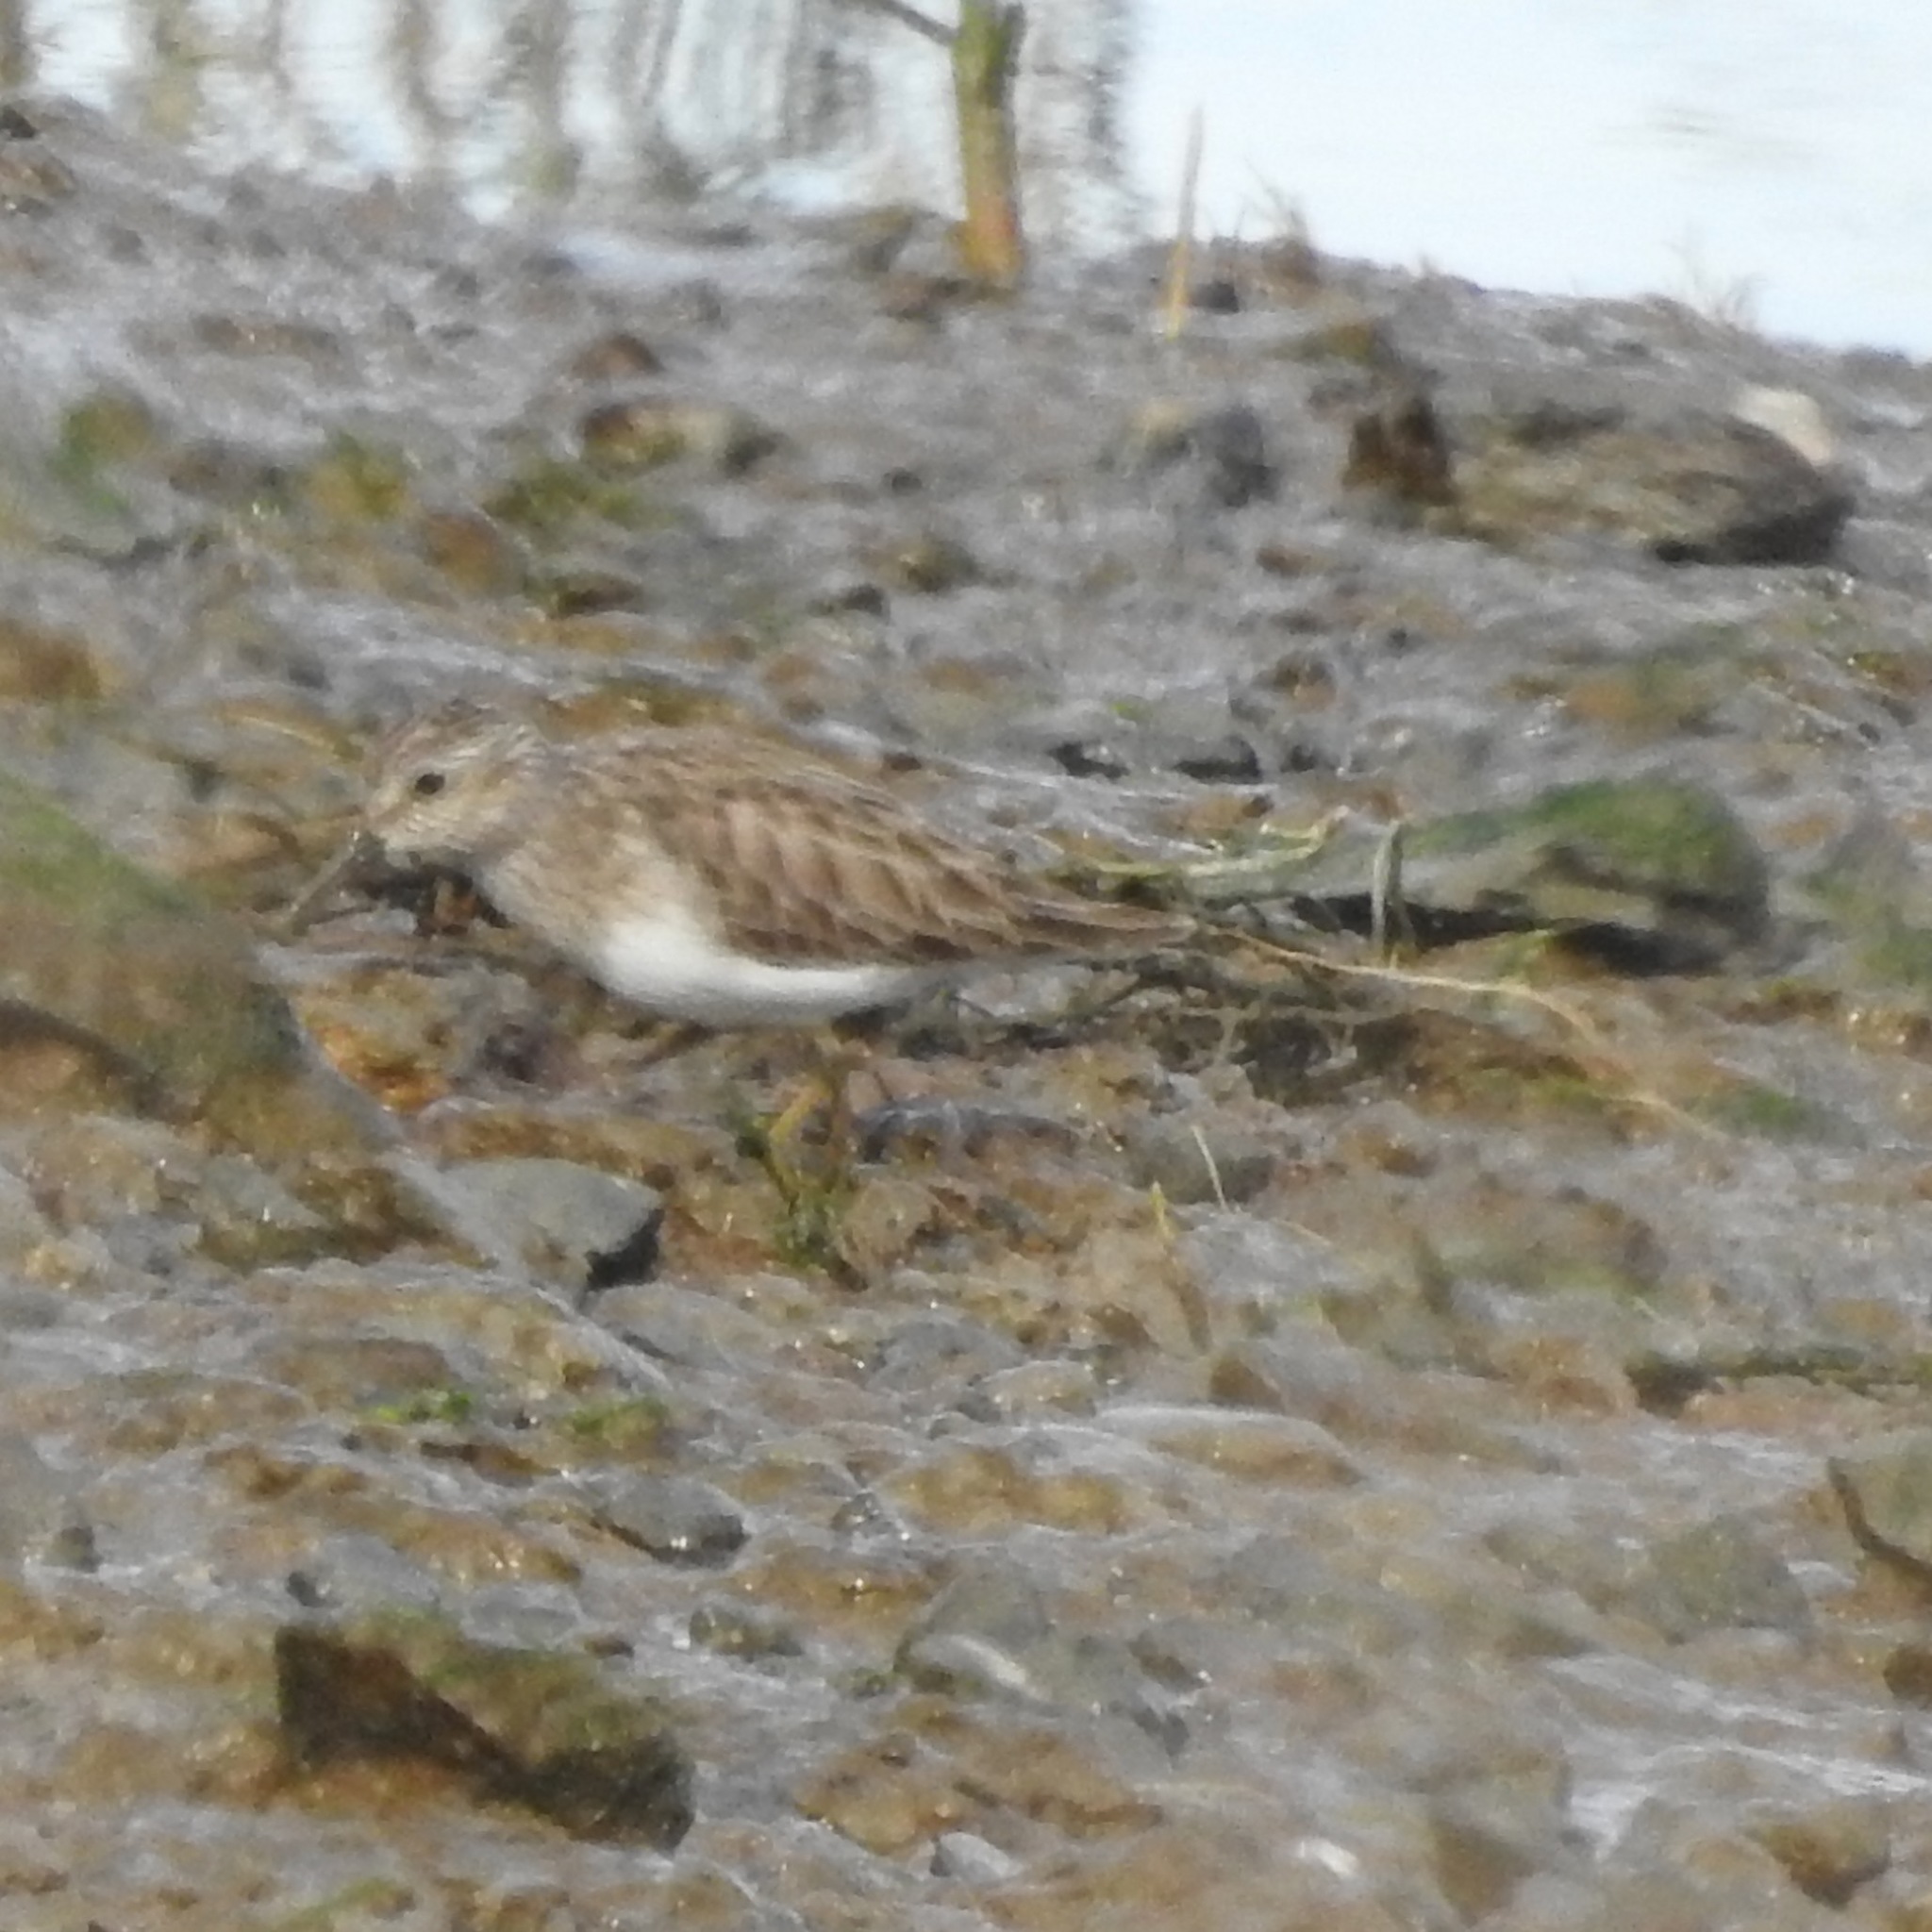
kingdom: Animalia
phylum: Chordata
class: Aves
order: Charadriiformes
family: Scolopacidae
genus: Calidris
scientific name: Calidris minutilla
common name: Least sandpiper
